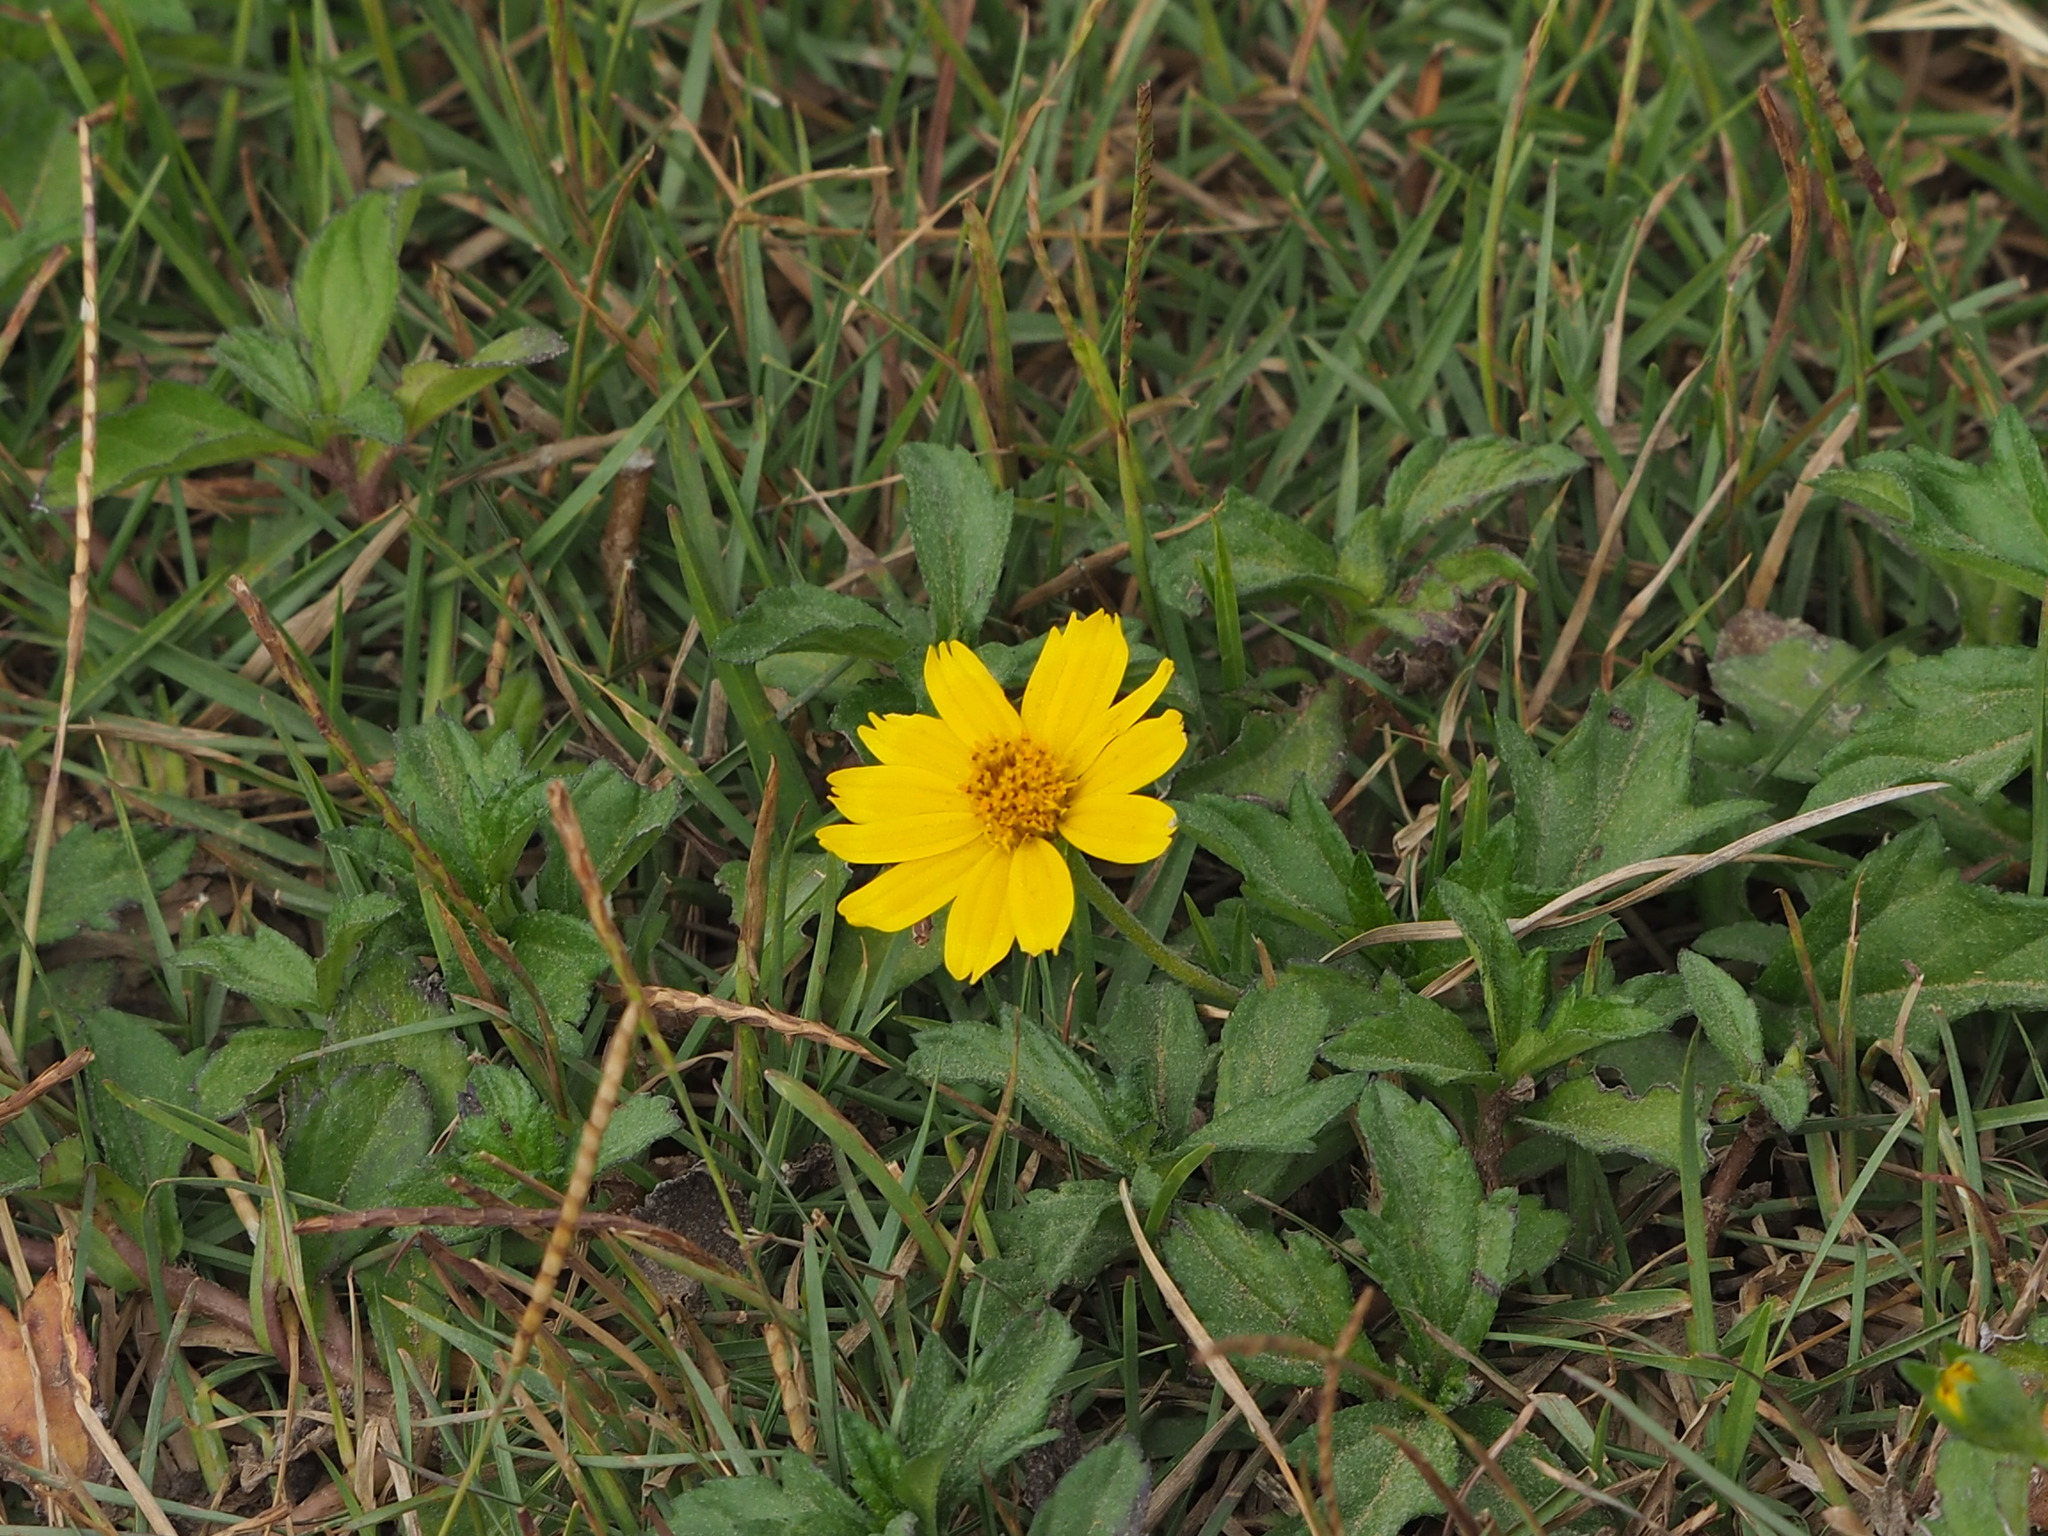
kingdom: Plantae
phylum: Tracheophyta
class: Magnoliopsida
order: Asterales
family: Asteraceae
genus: Sphagneticola
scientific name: Sphagneticola trilobata
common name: Bay biscayne creeping-oxeye
